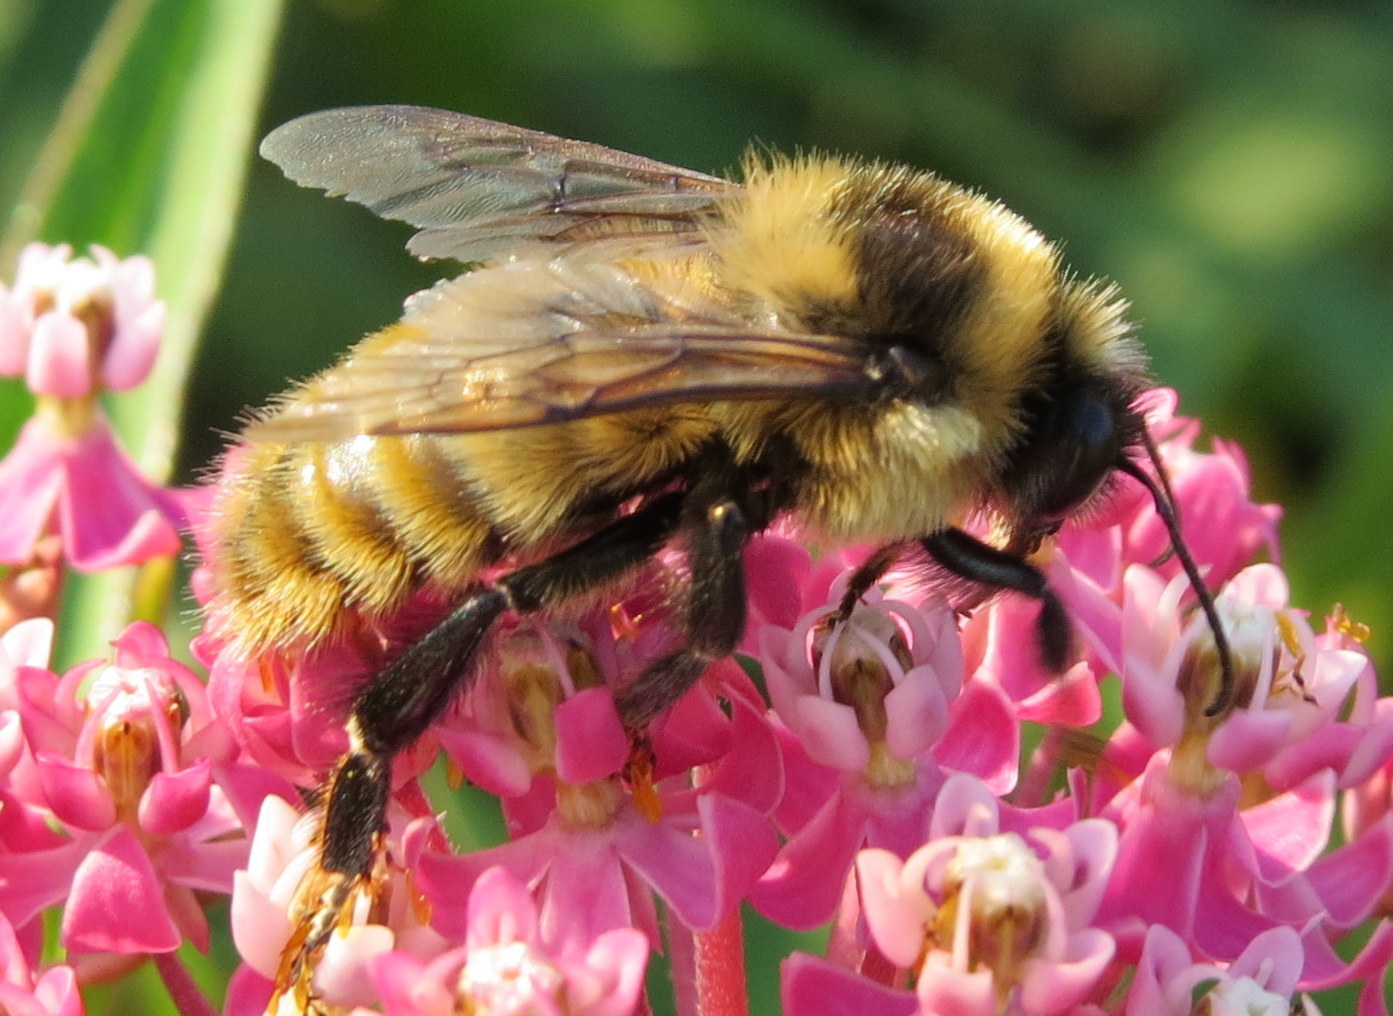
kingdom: Animalia
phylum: Arthropoda
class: Insecta
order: Hymenoptera
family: Apidae
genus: Bombus
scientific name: Bombus rufocinctus
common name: Red-belted bumble bee
